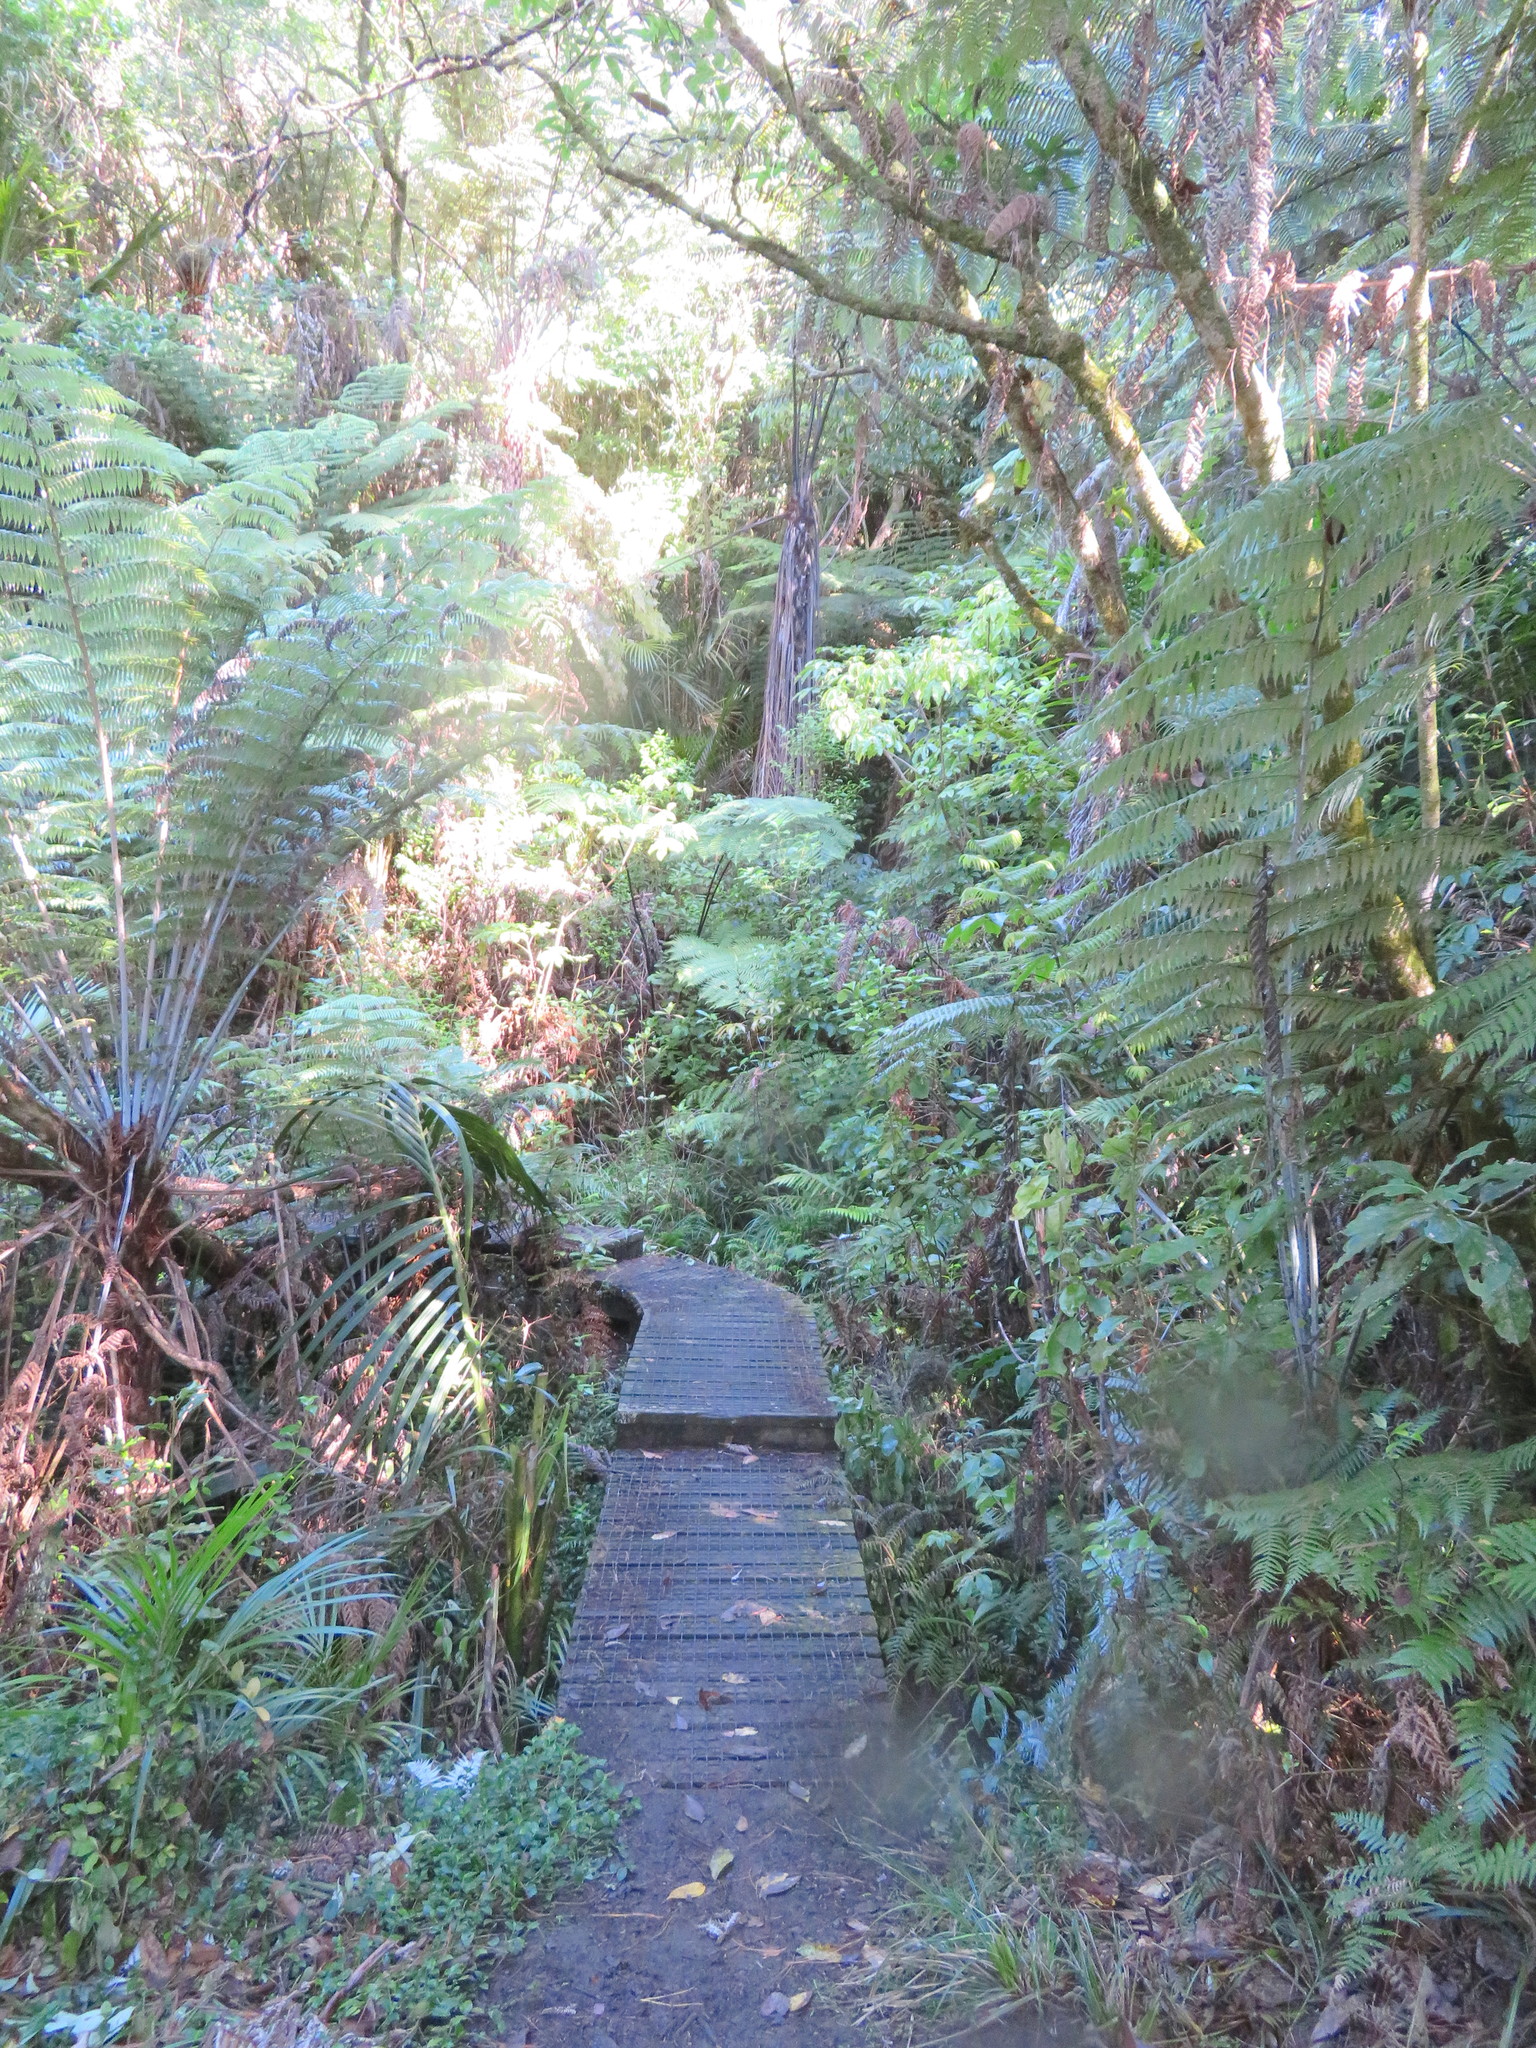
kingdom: Plantae
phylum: Tracheophyta
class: Polypodiopsida
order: Cyatheales
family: Cyatheaceae
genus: Alsophila
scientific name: Alsophila dealbata
